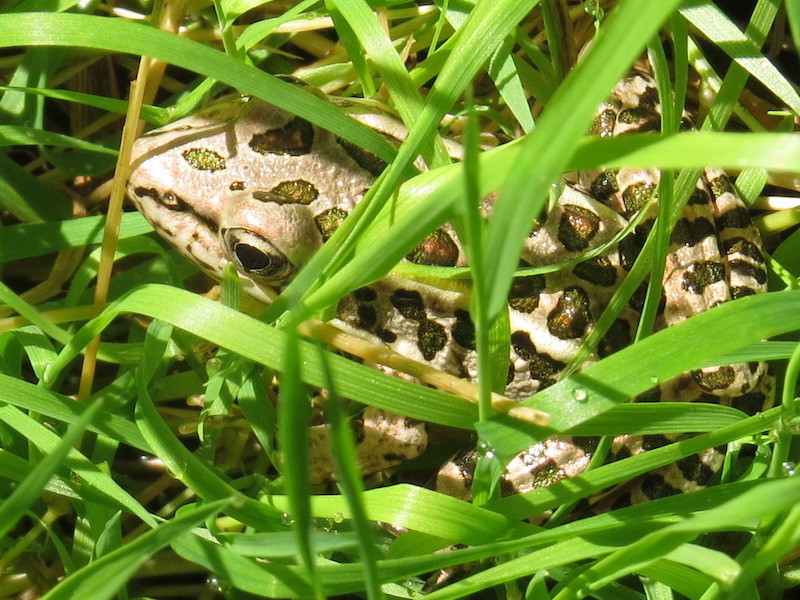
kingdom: Animalia
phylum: Chordata
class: Amphibia
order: Anura
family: Ranidae
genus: Lithobates
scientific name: Lithobates palustris
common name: Pickerel frog
